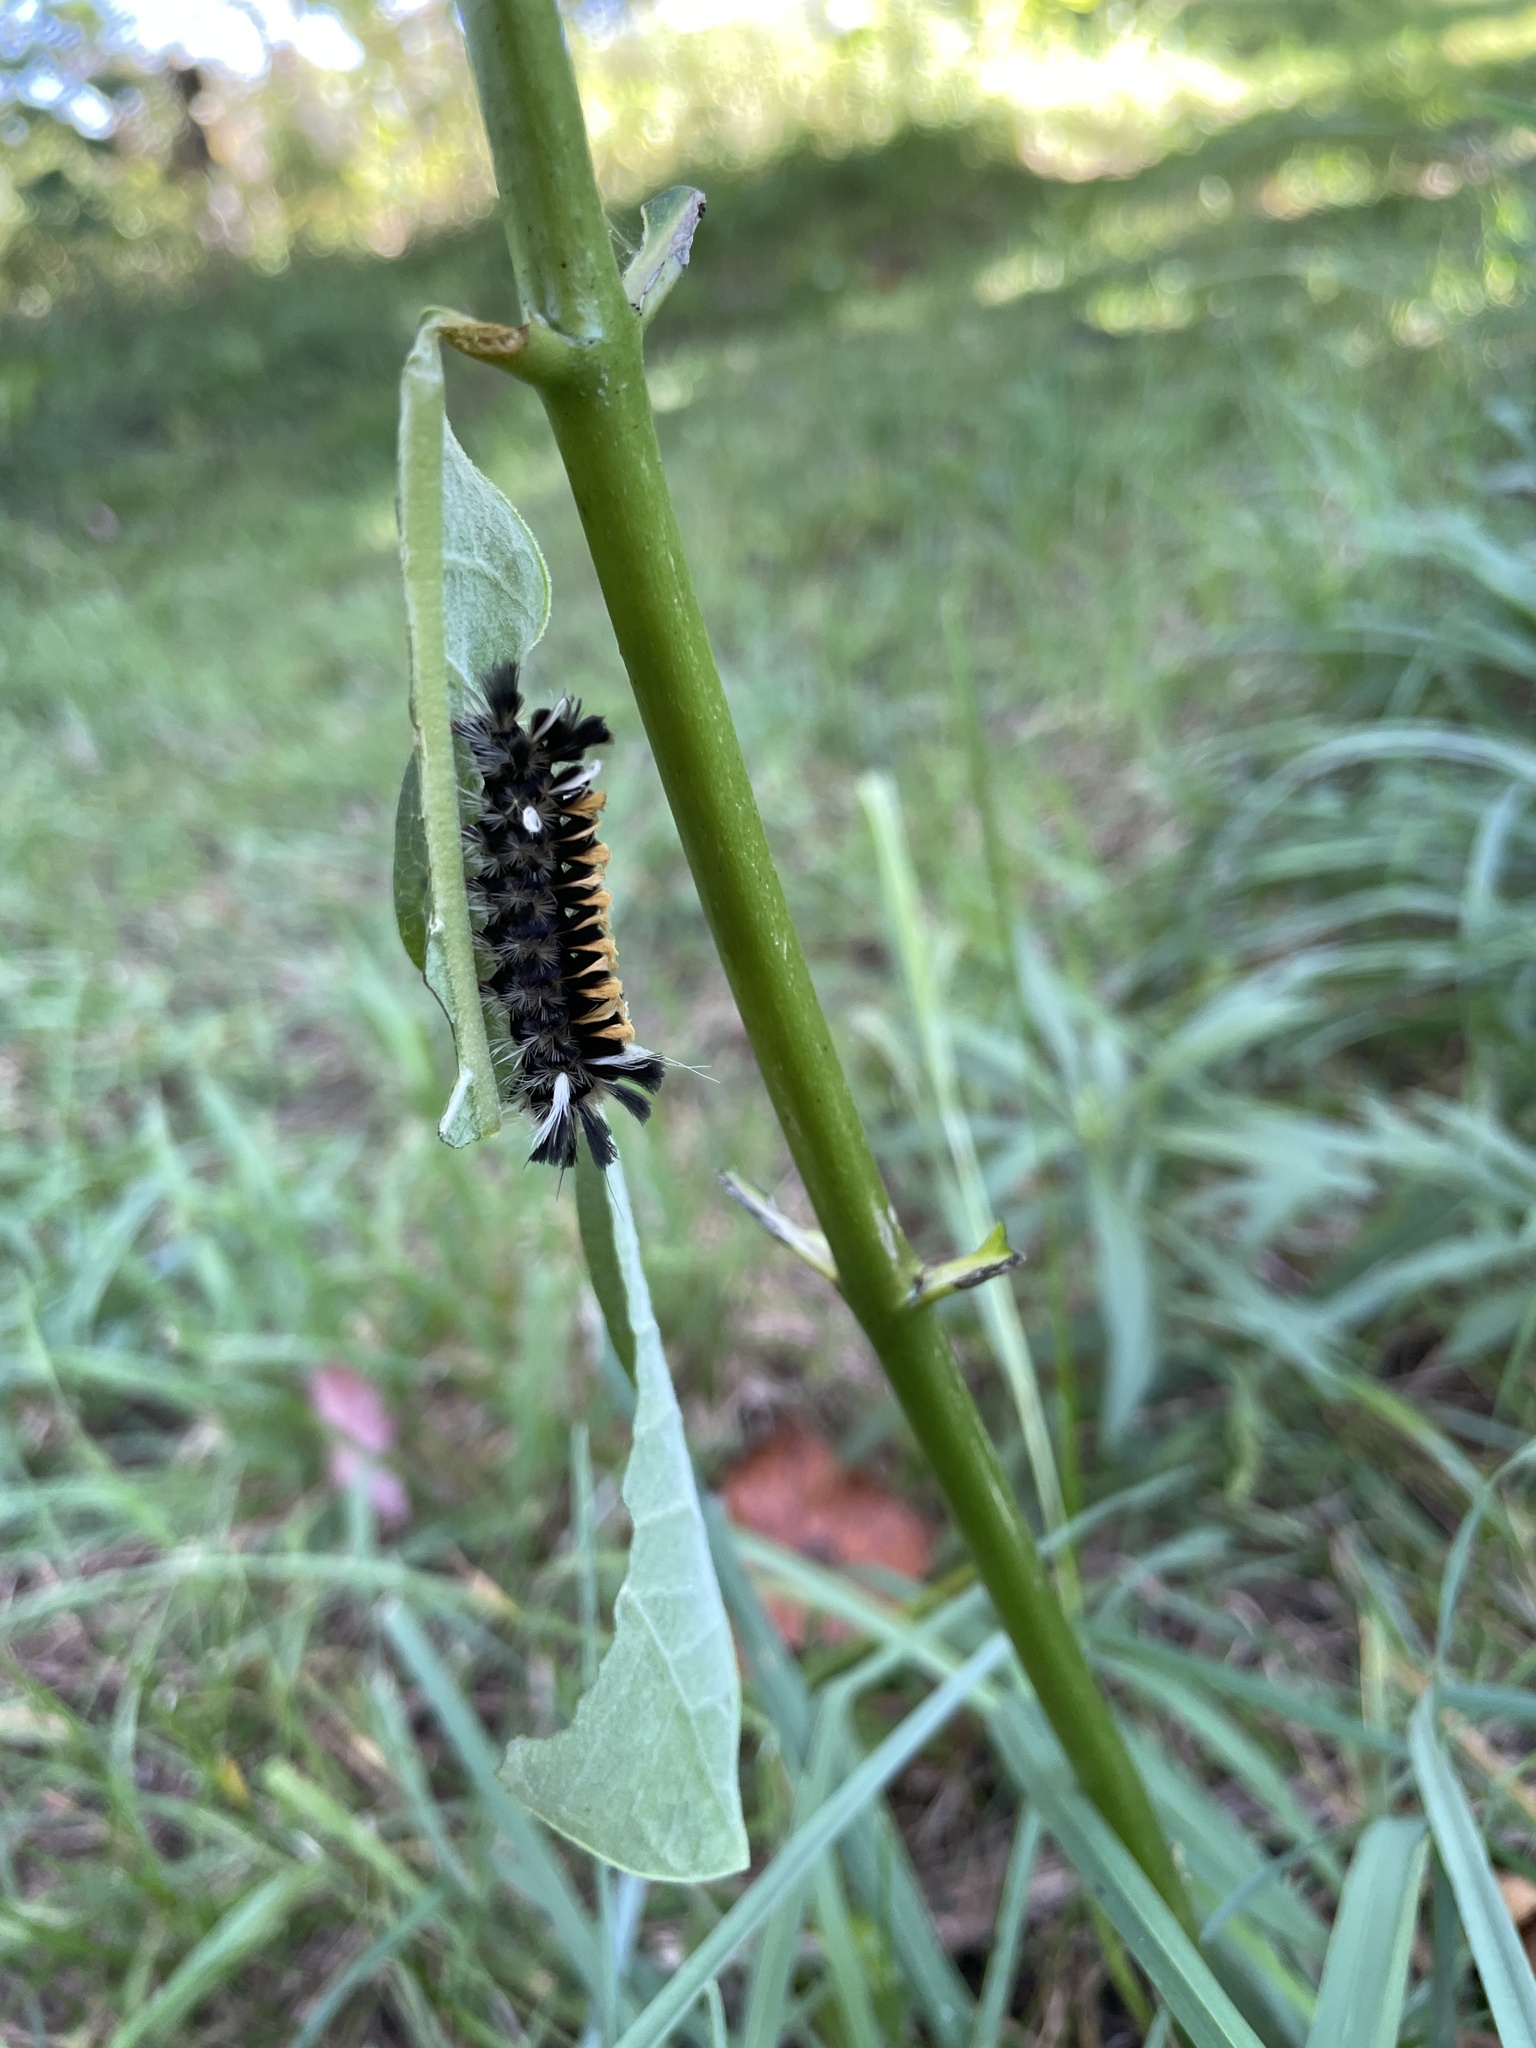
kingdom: Animalia
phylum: Arthropoda
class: Insecta
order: Lepidoptera
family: Erebidae
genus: Euchaetes
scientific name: Euchaetes egle
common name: Milkweed tussock moth
